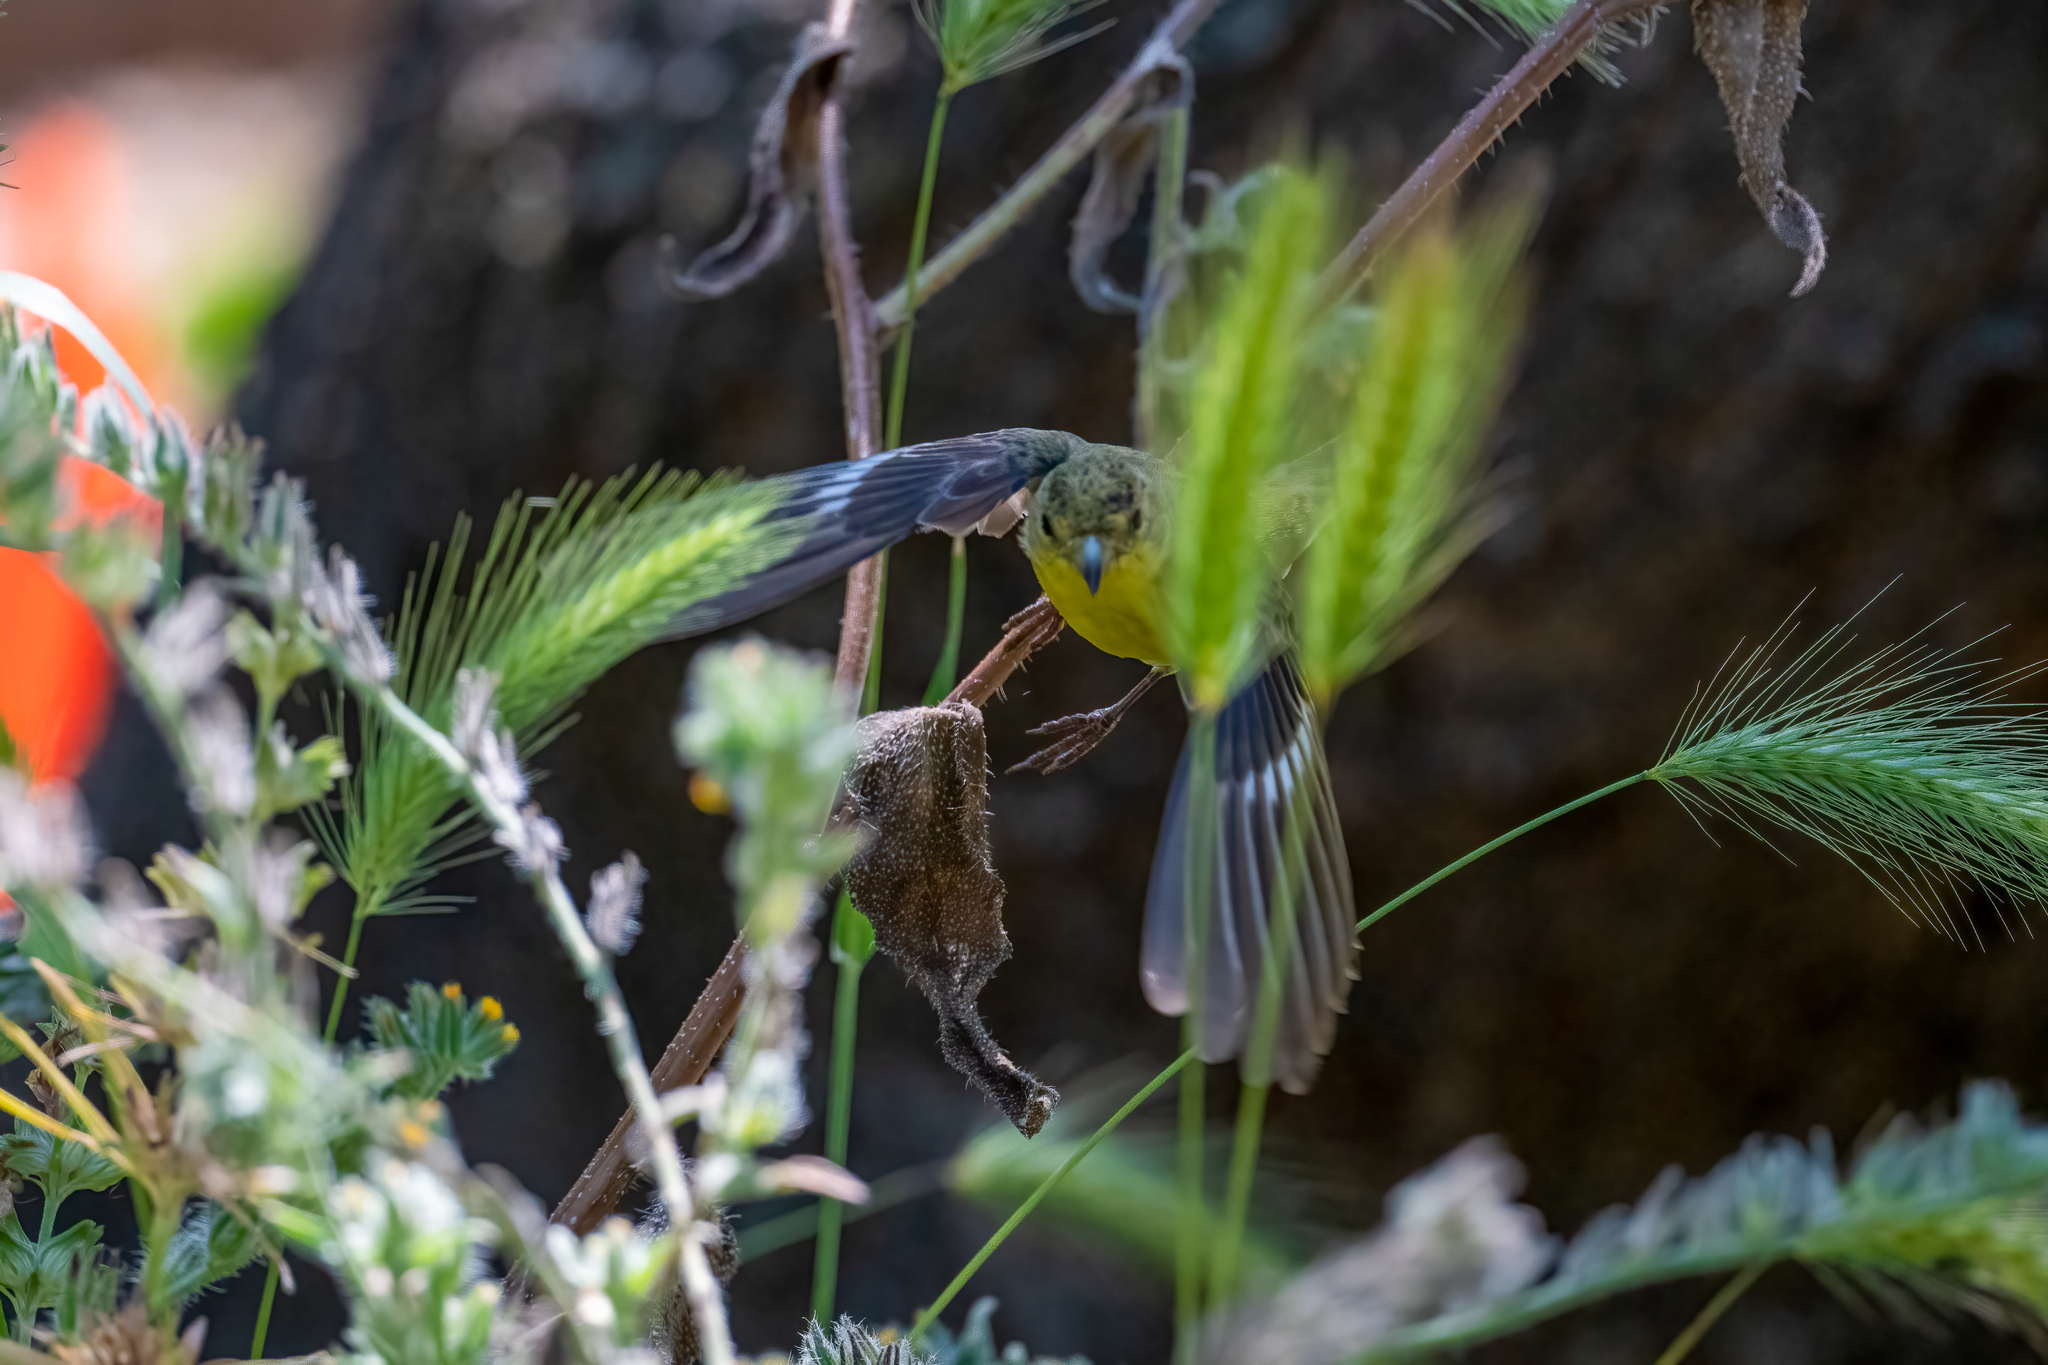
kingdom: Animalia
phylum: Chordata
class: Aves
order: Passeriformes
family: Fringillidae
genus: Spinus
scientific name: Spinus psaltria
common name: Lesser goldfinch
